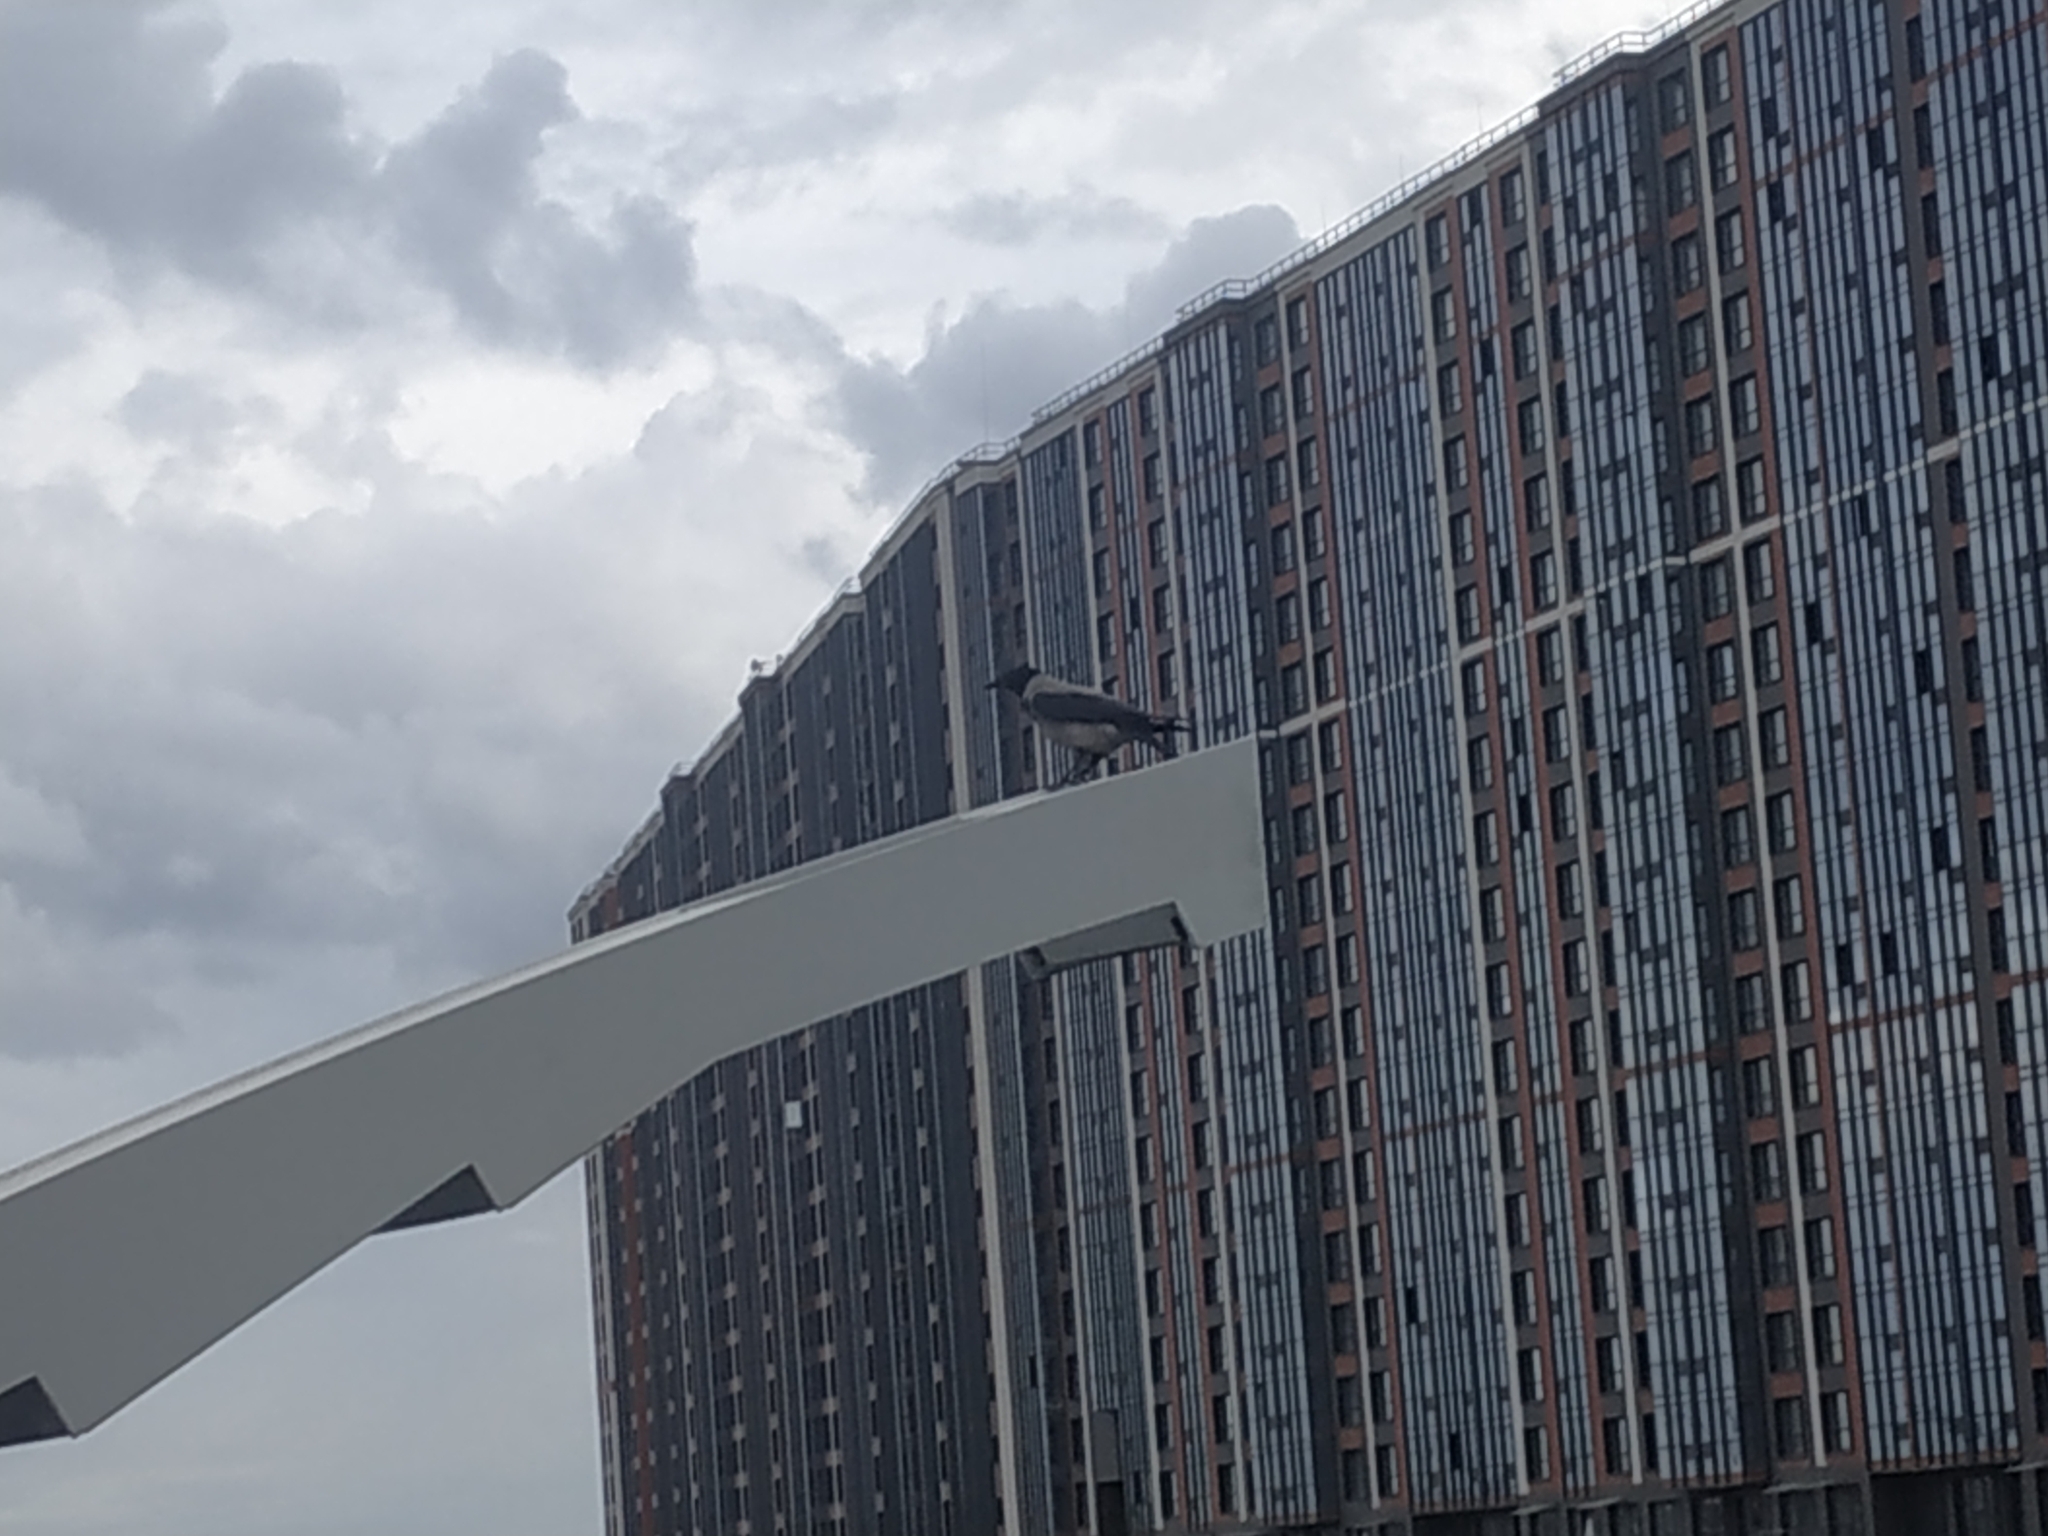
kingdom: Animalia
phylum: Chordata
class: Aves
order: Passeriformes
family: Corvidae
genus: Corvus
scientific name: Corvus cornix
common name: Hooded crow
